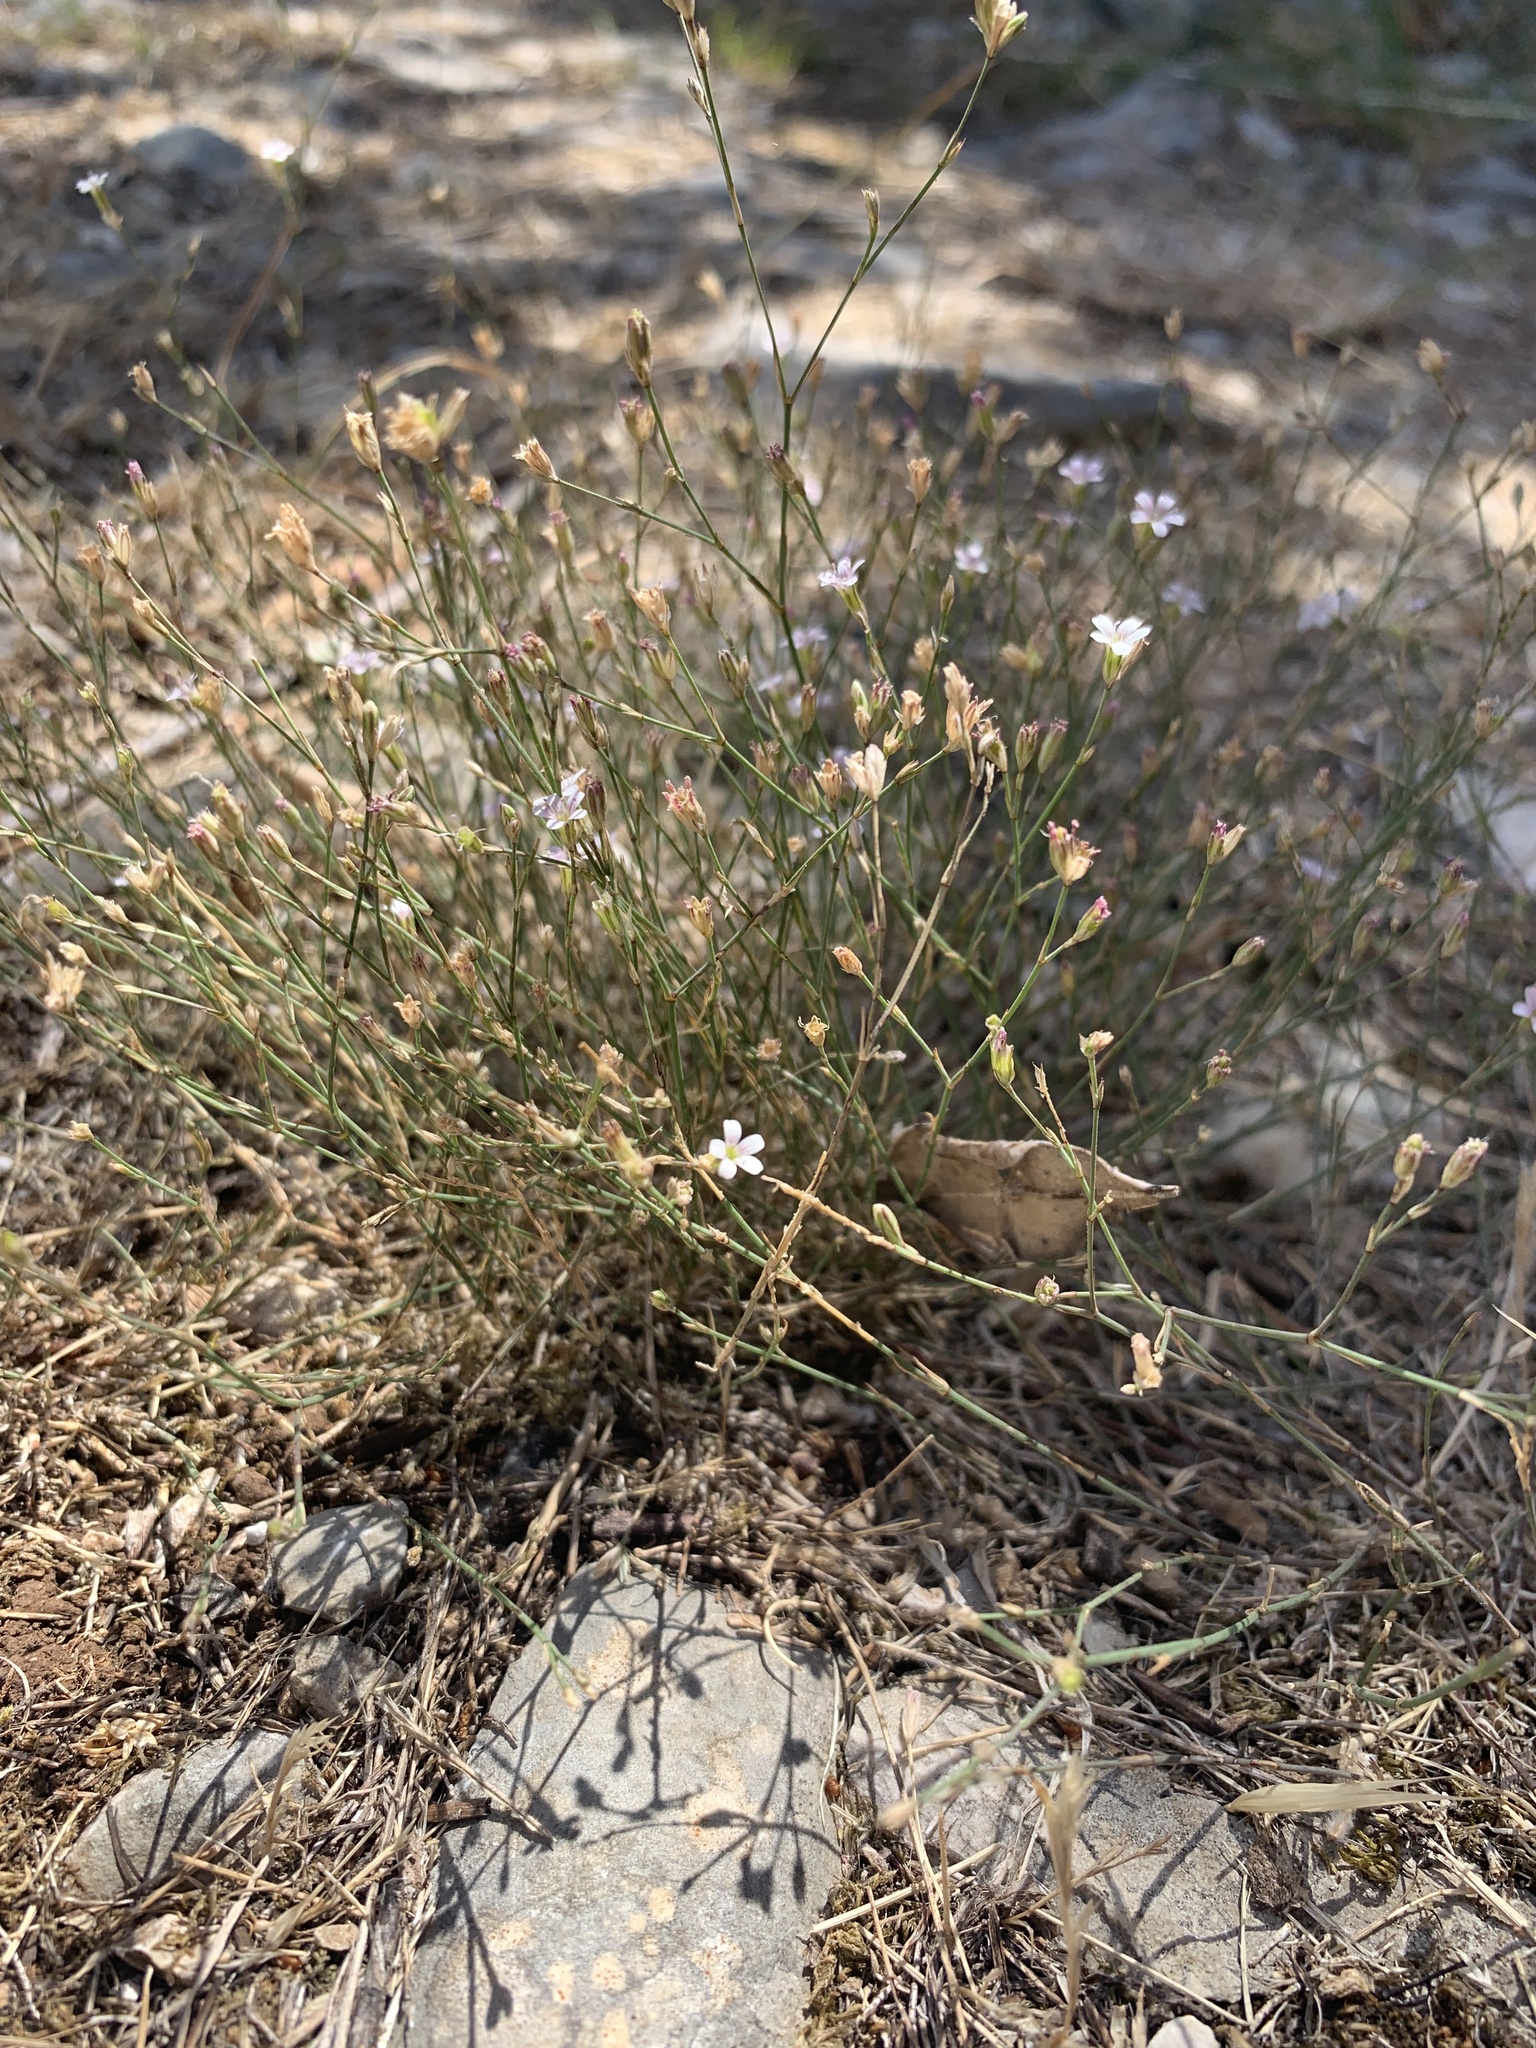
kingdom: Plantae
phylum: Tracheophyta
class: Magnoliopsida
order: Caryophyllales
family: Caryophyllaceae
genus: Petrorhagia
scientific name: Petrorhagia saxifraga
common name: Tunicflower
